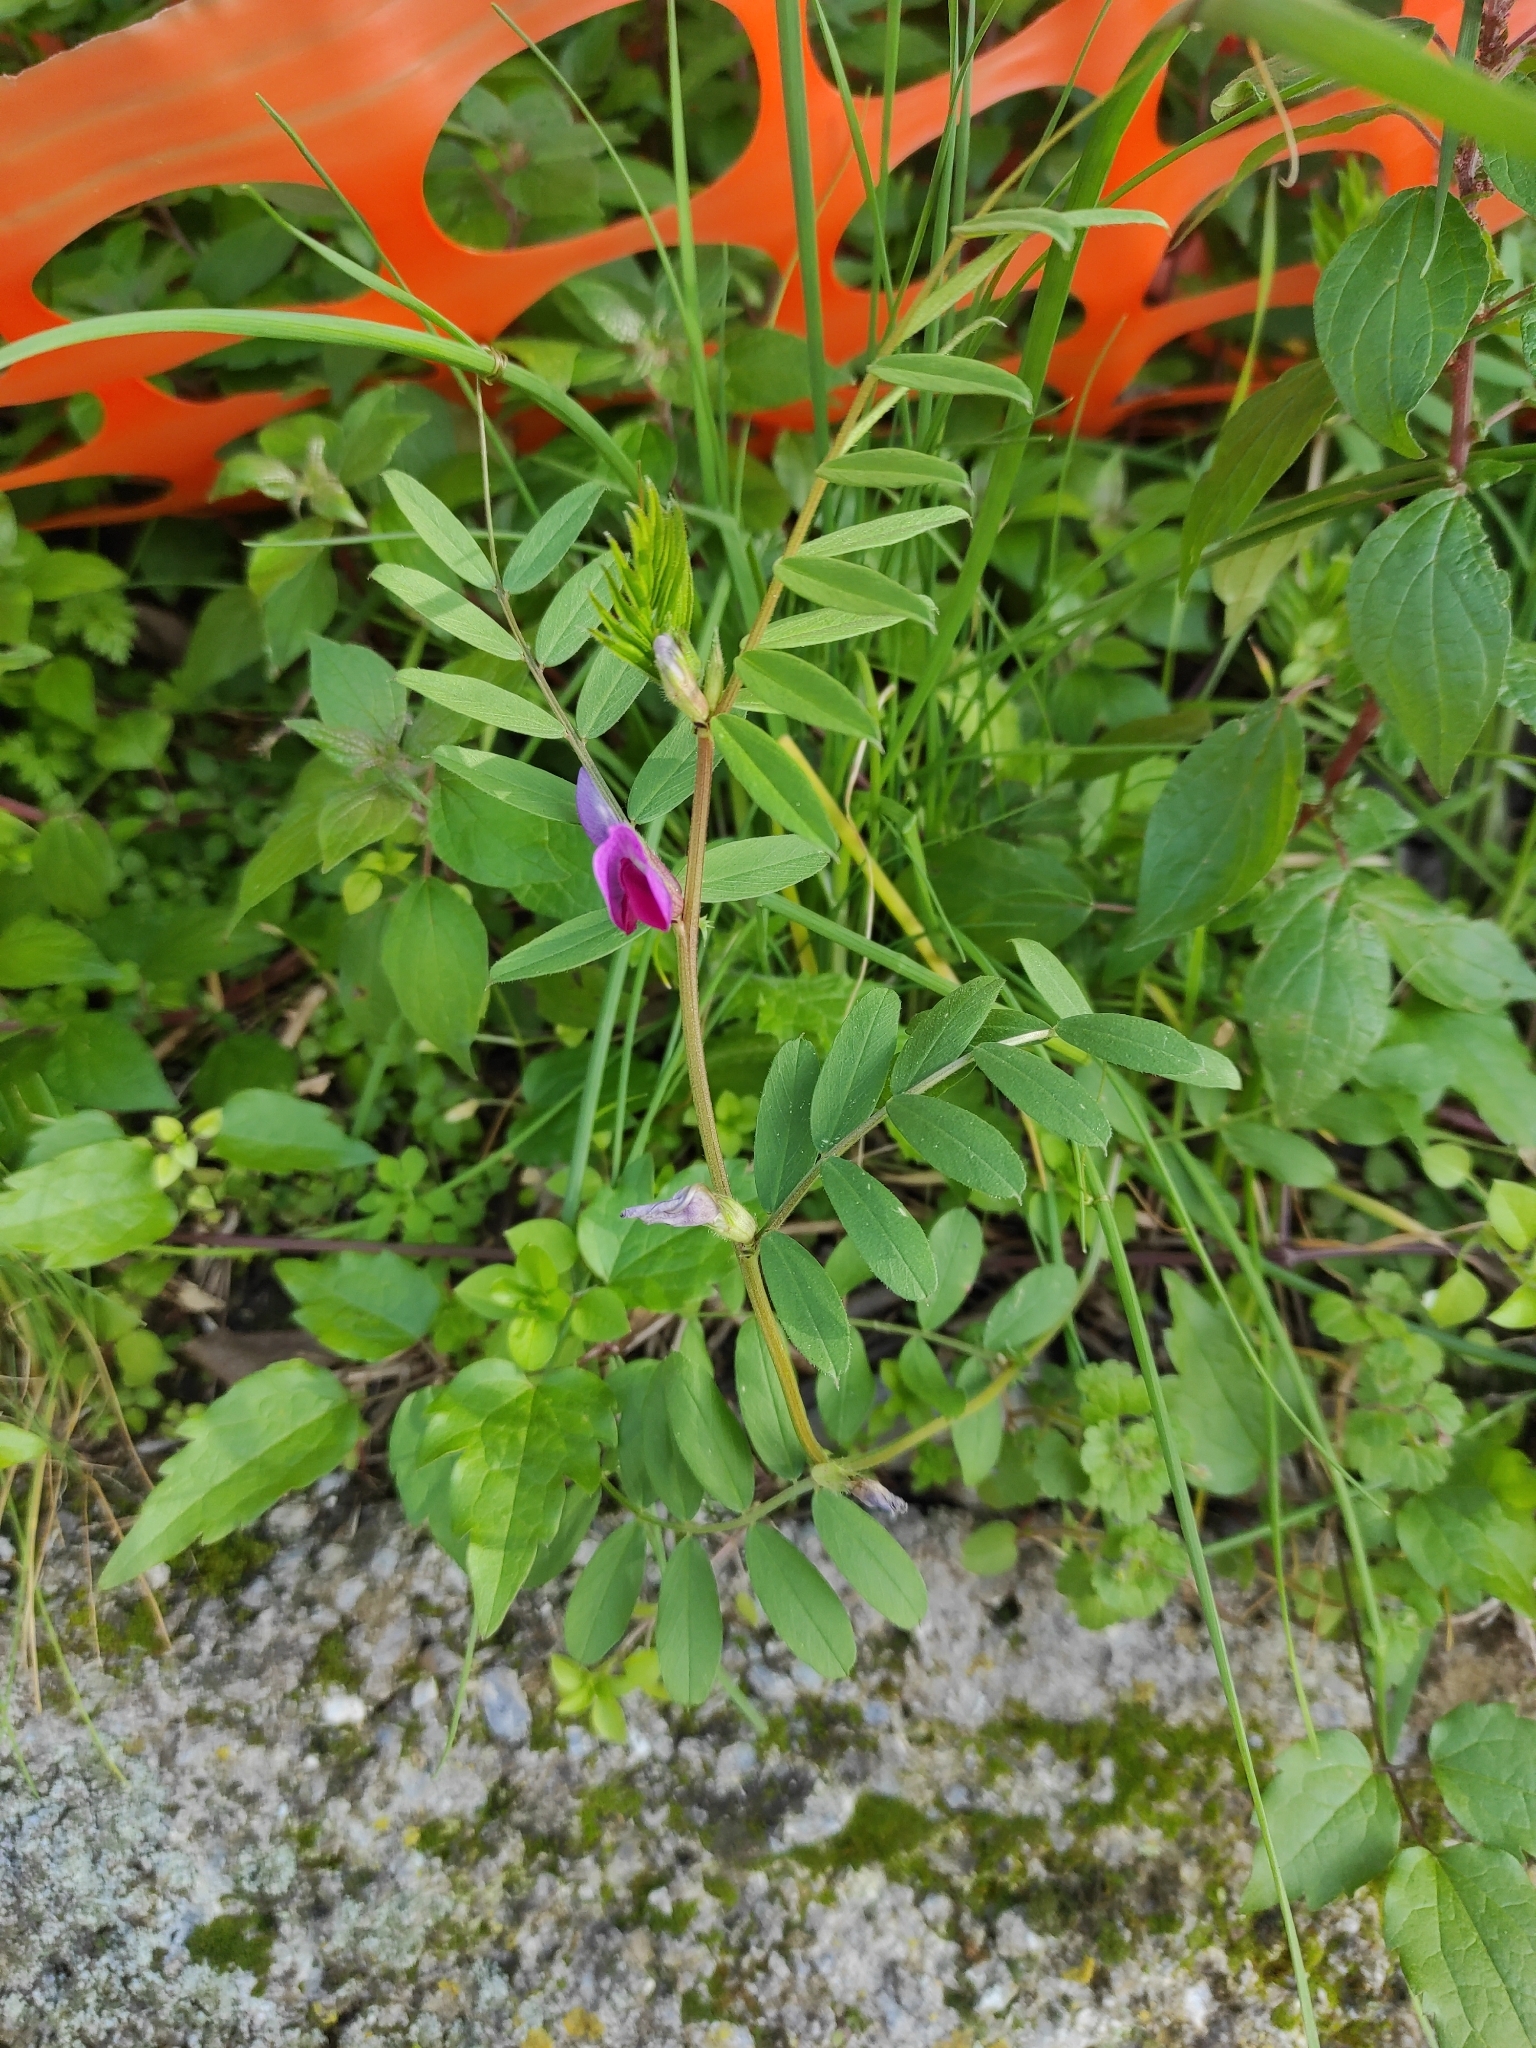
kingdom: Plantae
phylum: Tracheophyta
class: Magnoliopsida
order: Fabales
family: Fabaceae
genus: Vicia
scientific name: Vicia sativa
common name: Garden vetch
